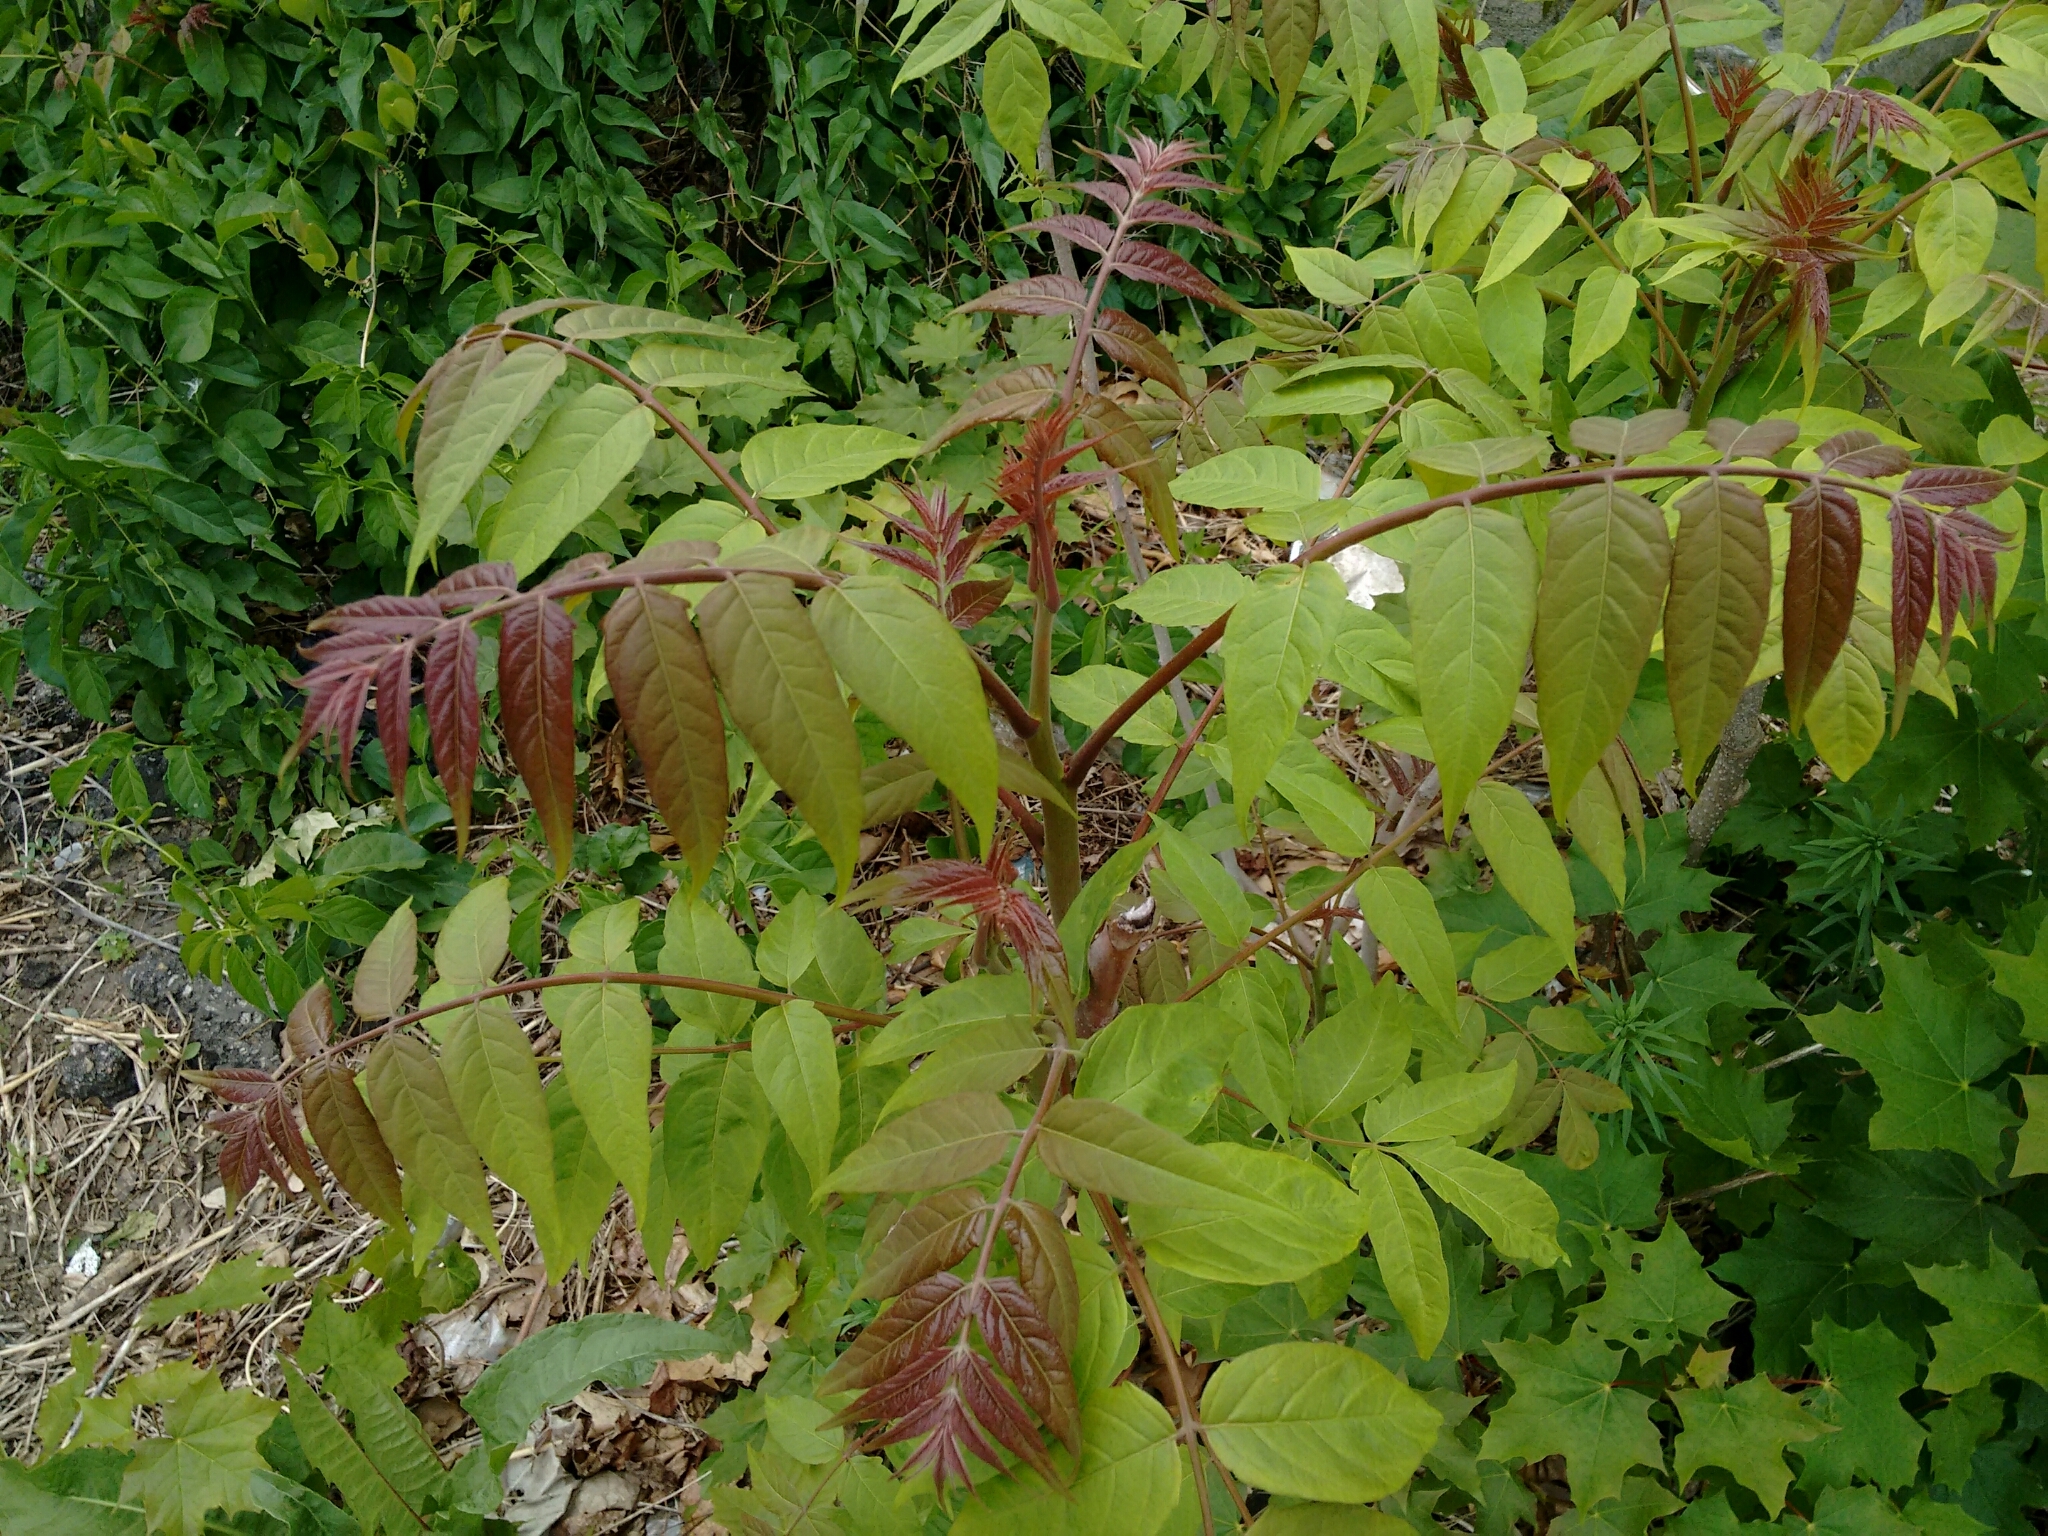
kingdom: Plantae
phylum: Tracheophyta
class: Magnoliopsida
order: Sapindales
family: Simaroubaceae
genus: Ailanthus
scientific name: Ailanthus altissima
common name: Tree-of-heaven
